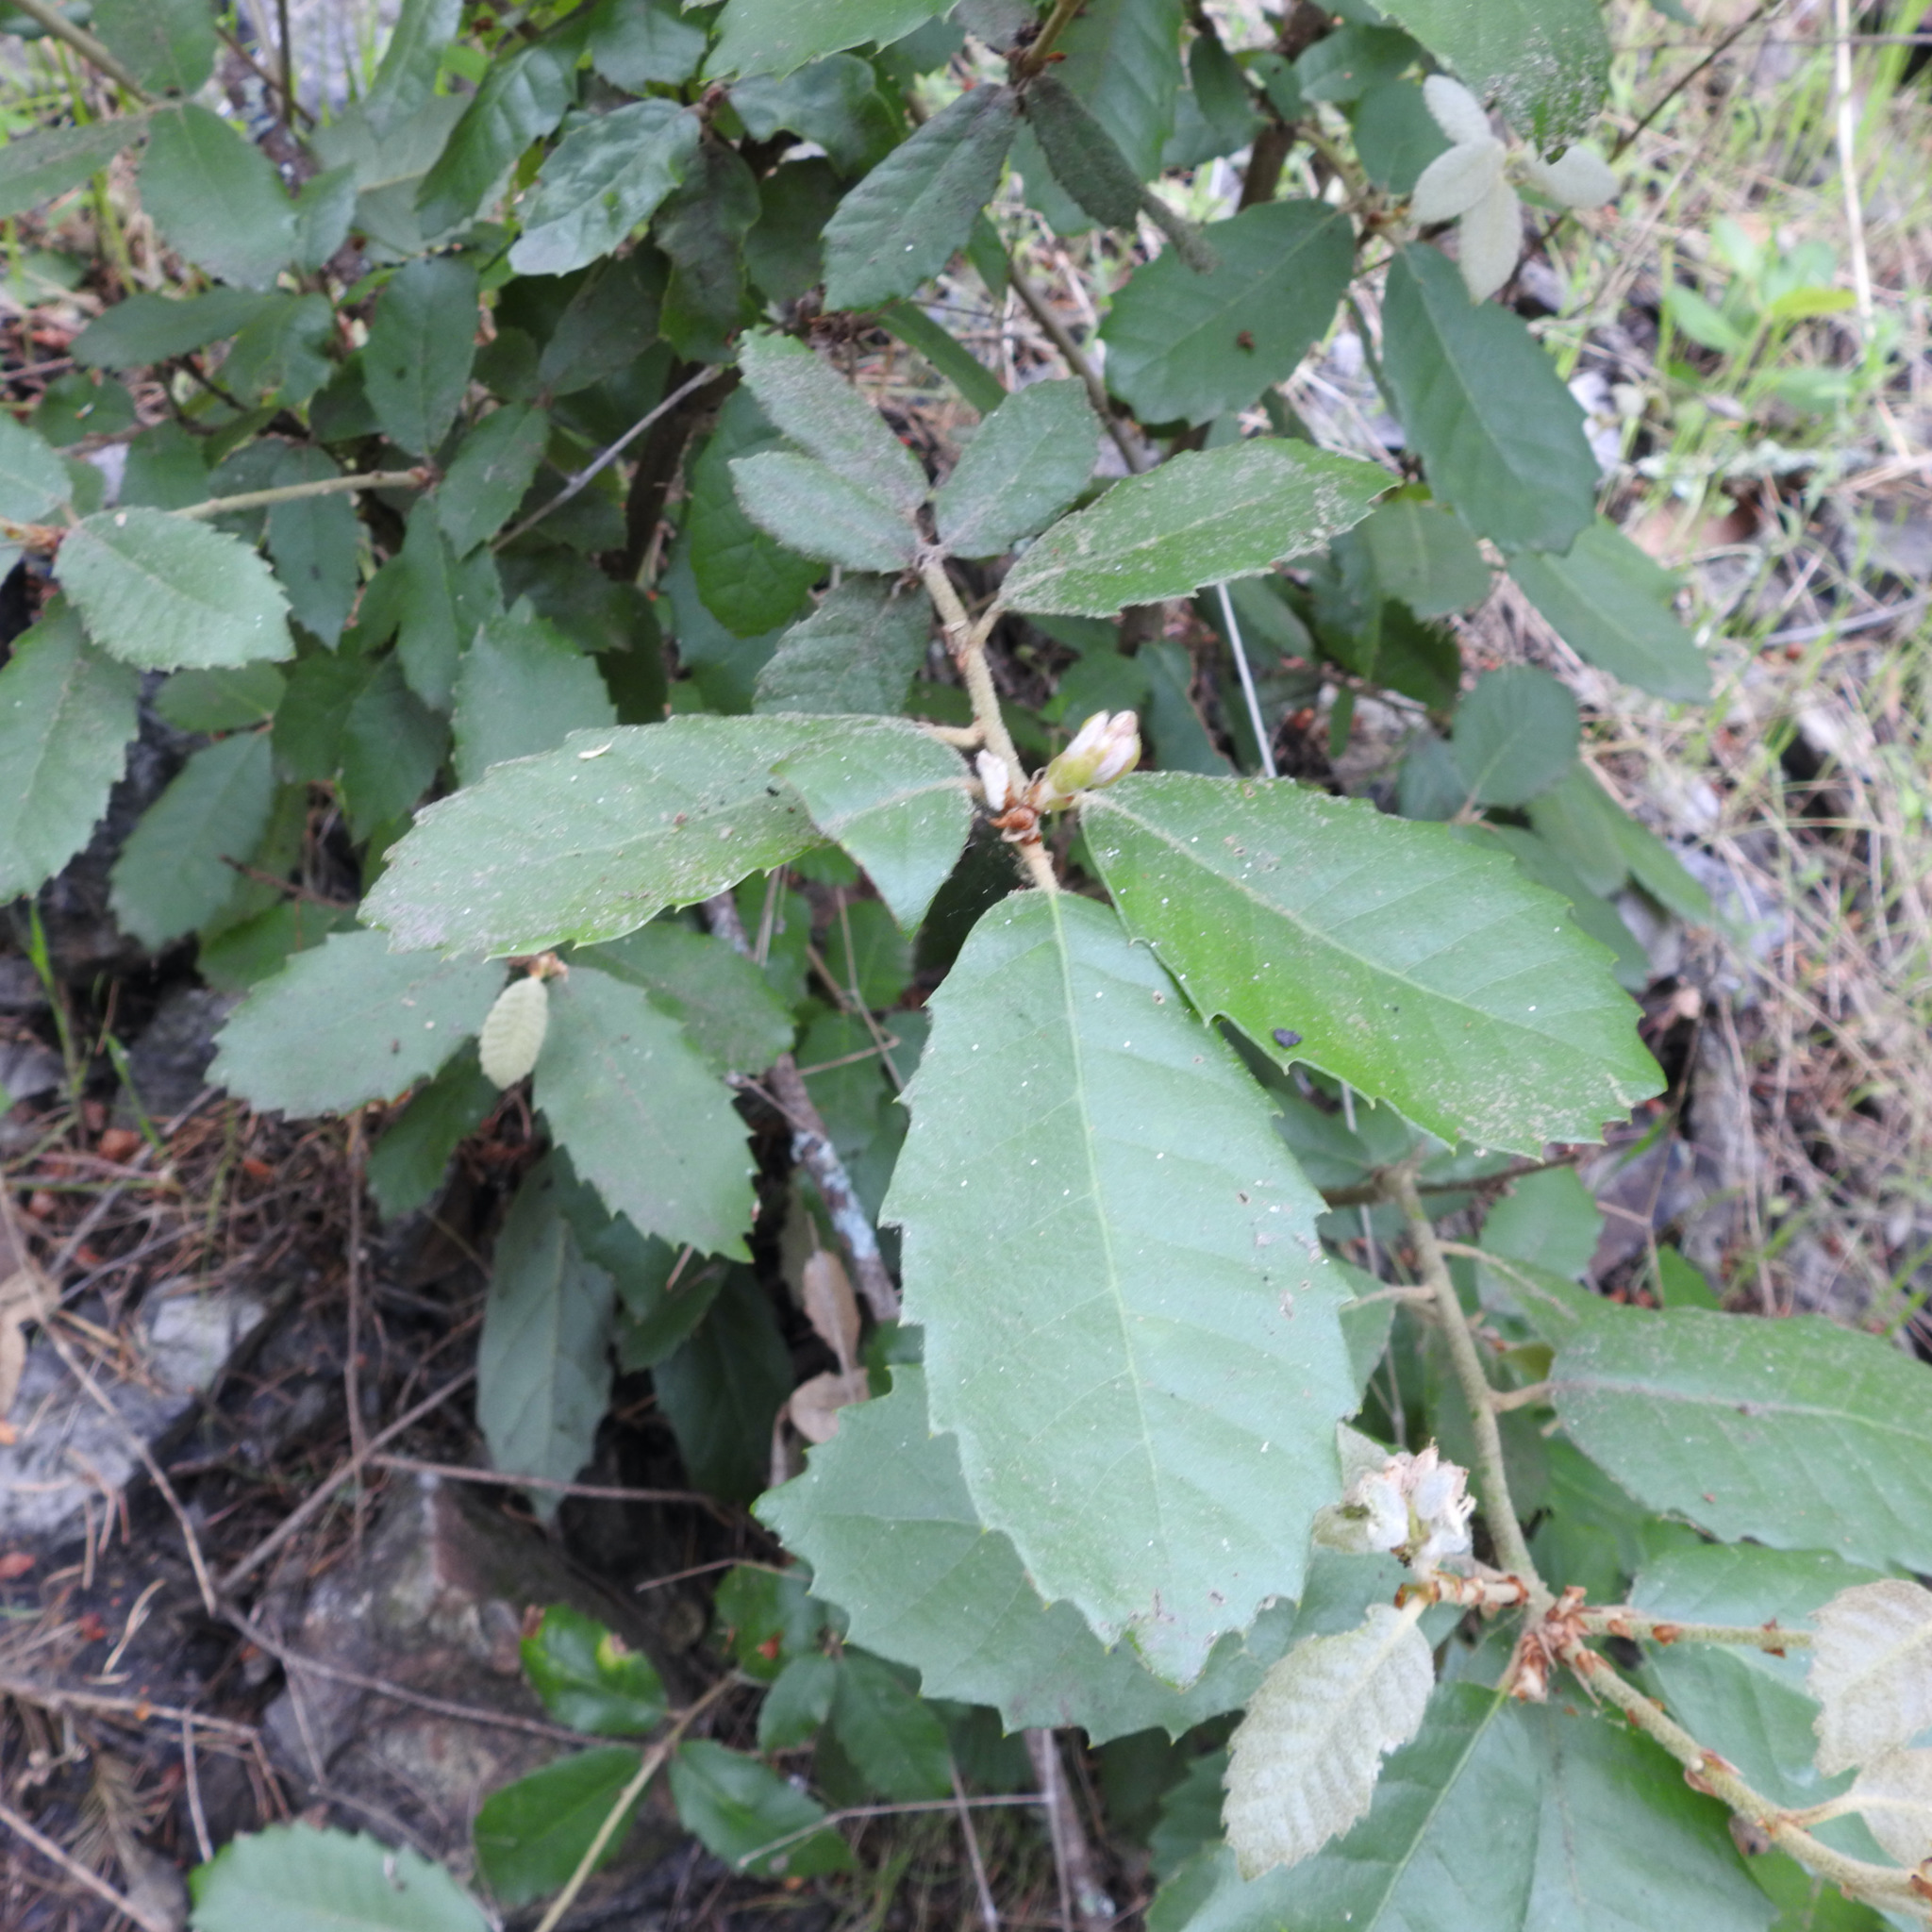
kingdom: Plantae
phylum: Tracheophyta
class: Magnoliopsida
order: Fagales
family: Fagaceae
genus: Notholithocarpus
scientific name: Notholithocarpus densiflorus
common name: Tan bark oak
